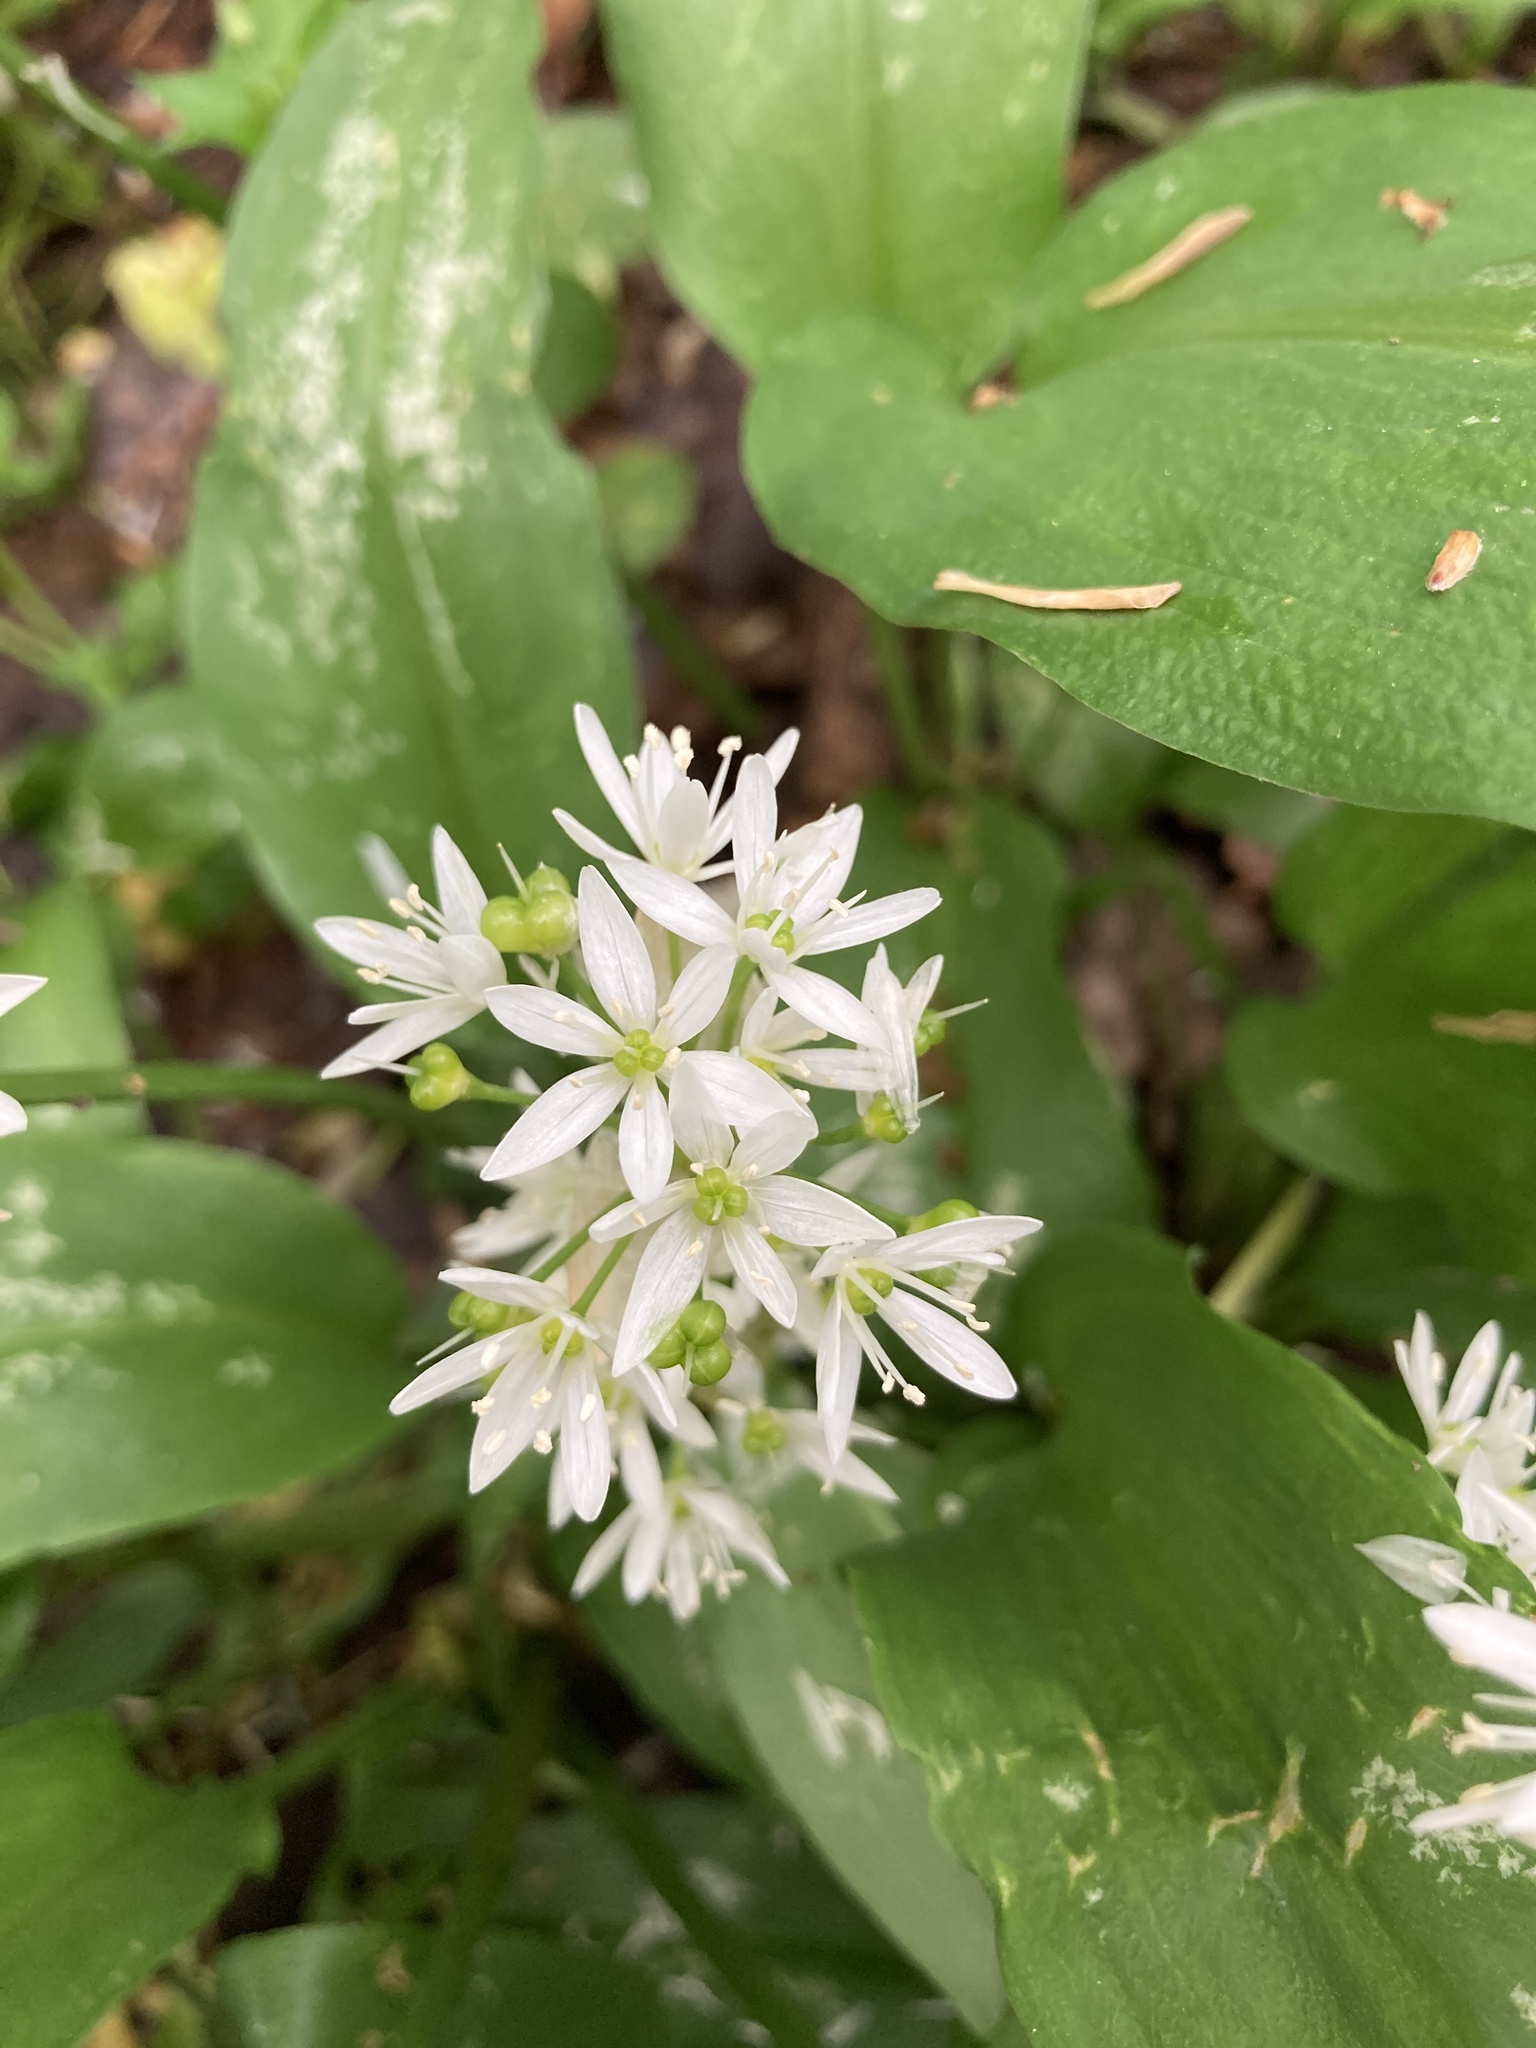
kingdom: Plantae
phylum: Tracheophyta
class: Liliopsida
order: Asparagales
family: Amaryllidaceae
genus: Allium
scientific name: Allium ursinum
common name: Ramsons
